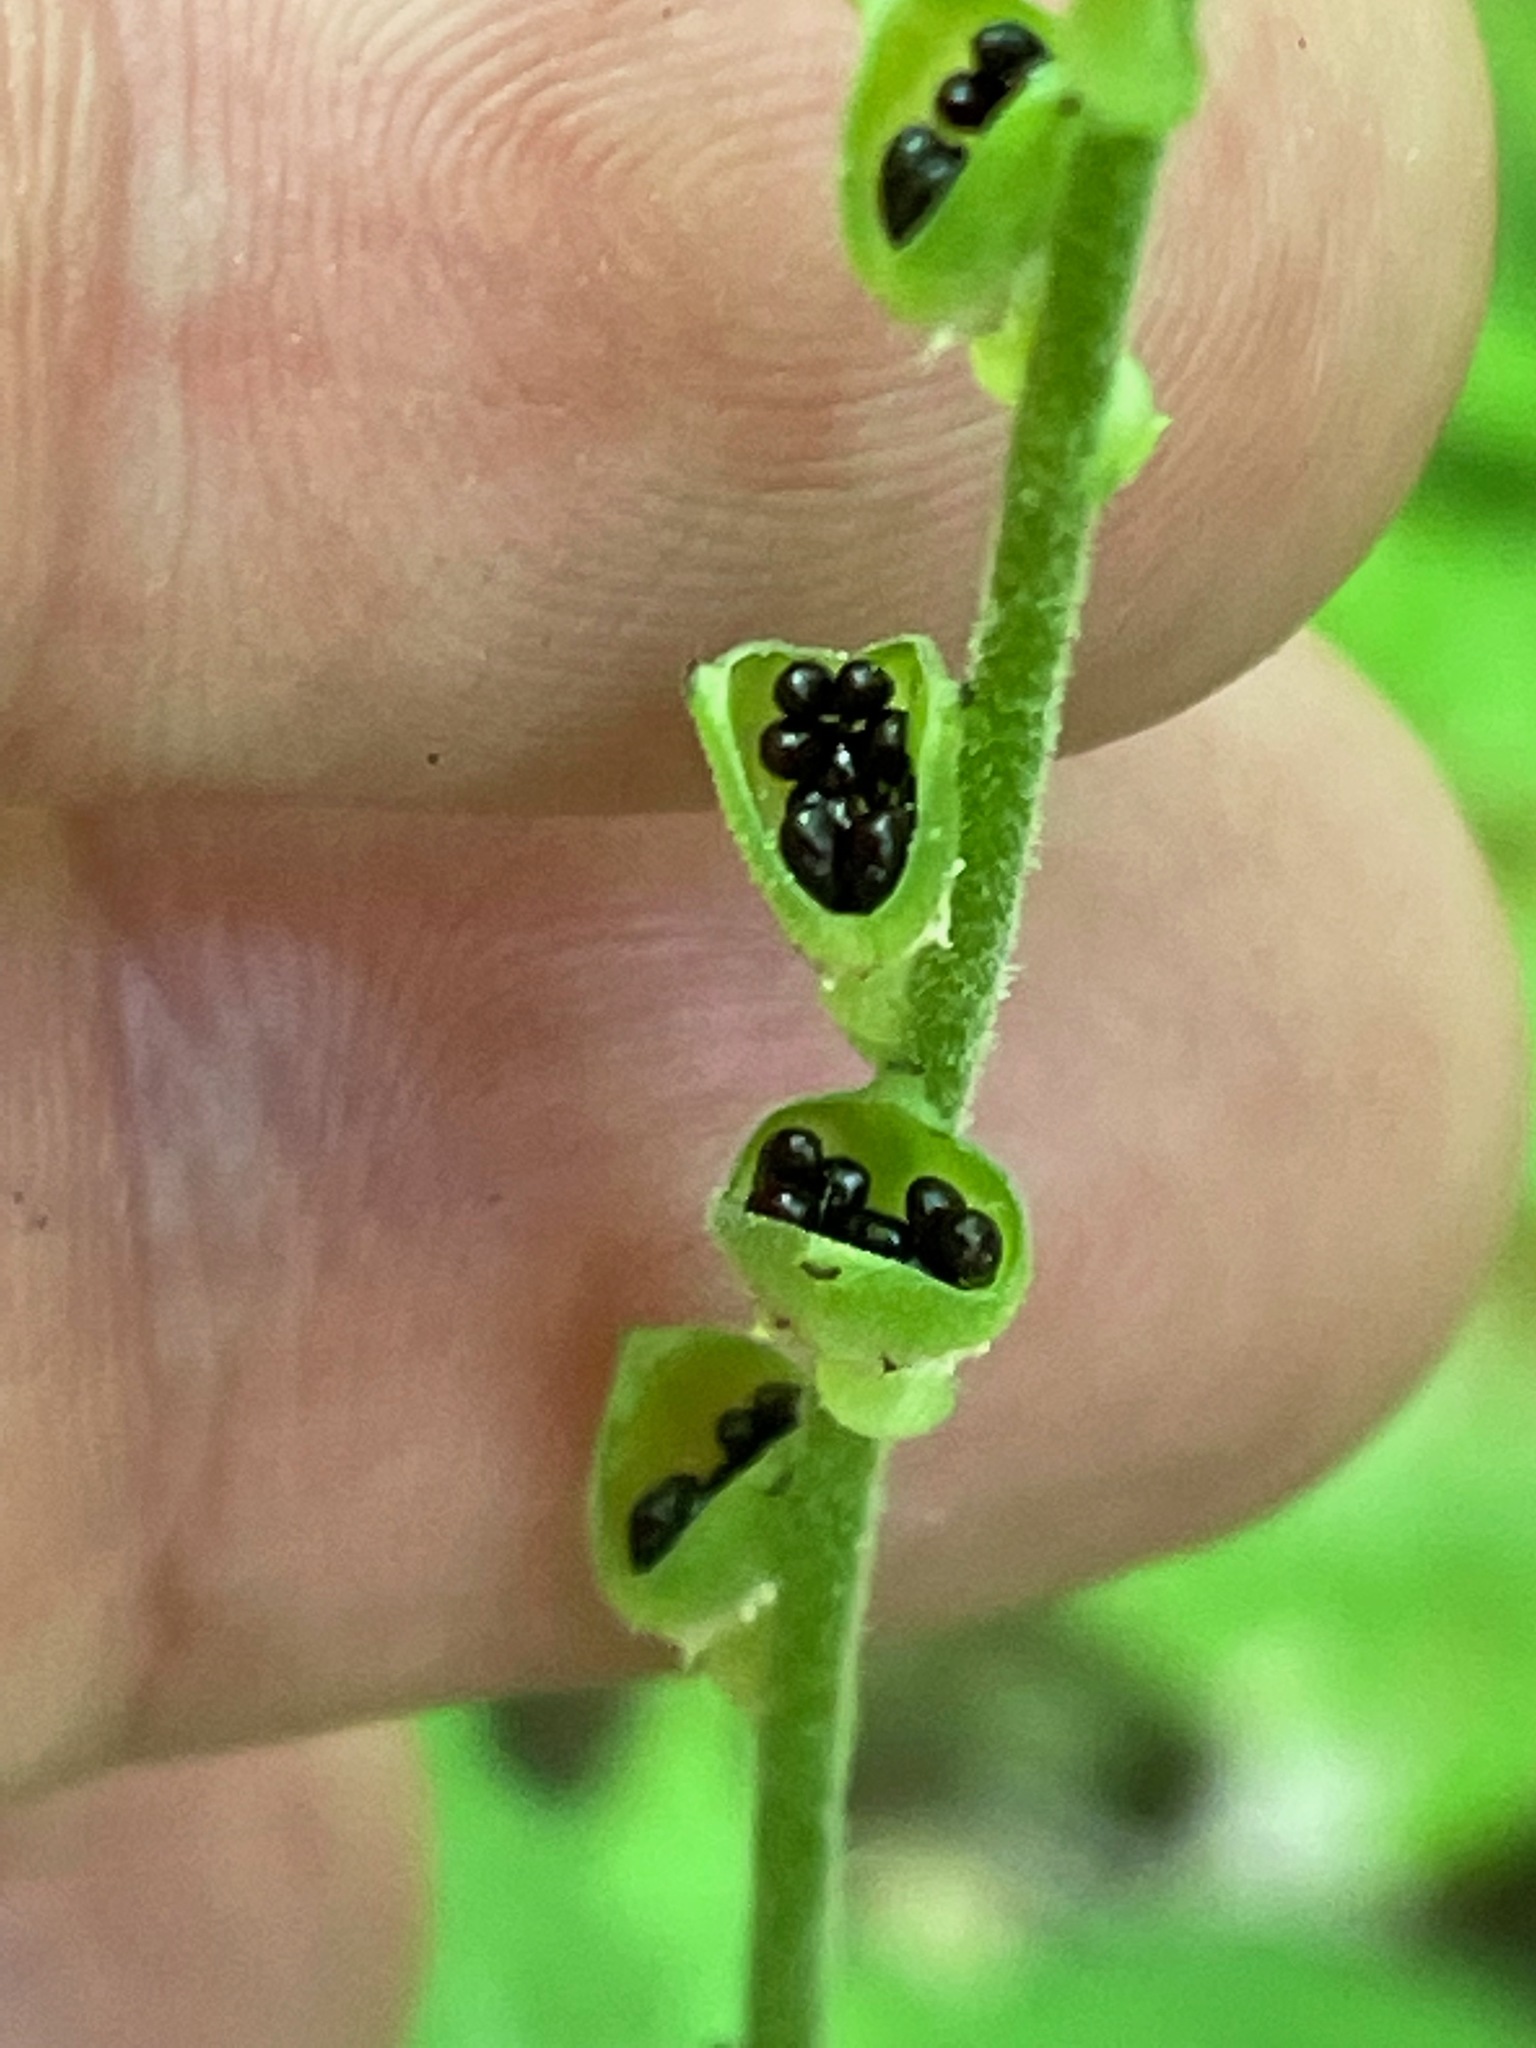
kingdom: Plantae
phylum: Tracheophyta
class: Magnoliopsida
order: Saxifragales
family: Saxifragaceae
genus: Mitella
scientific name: Mitella diphylla
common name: Coolwort
